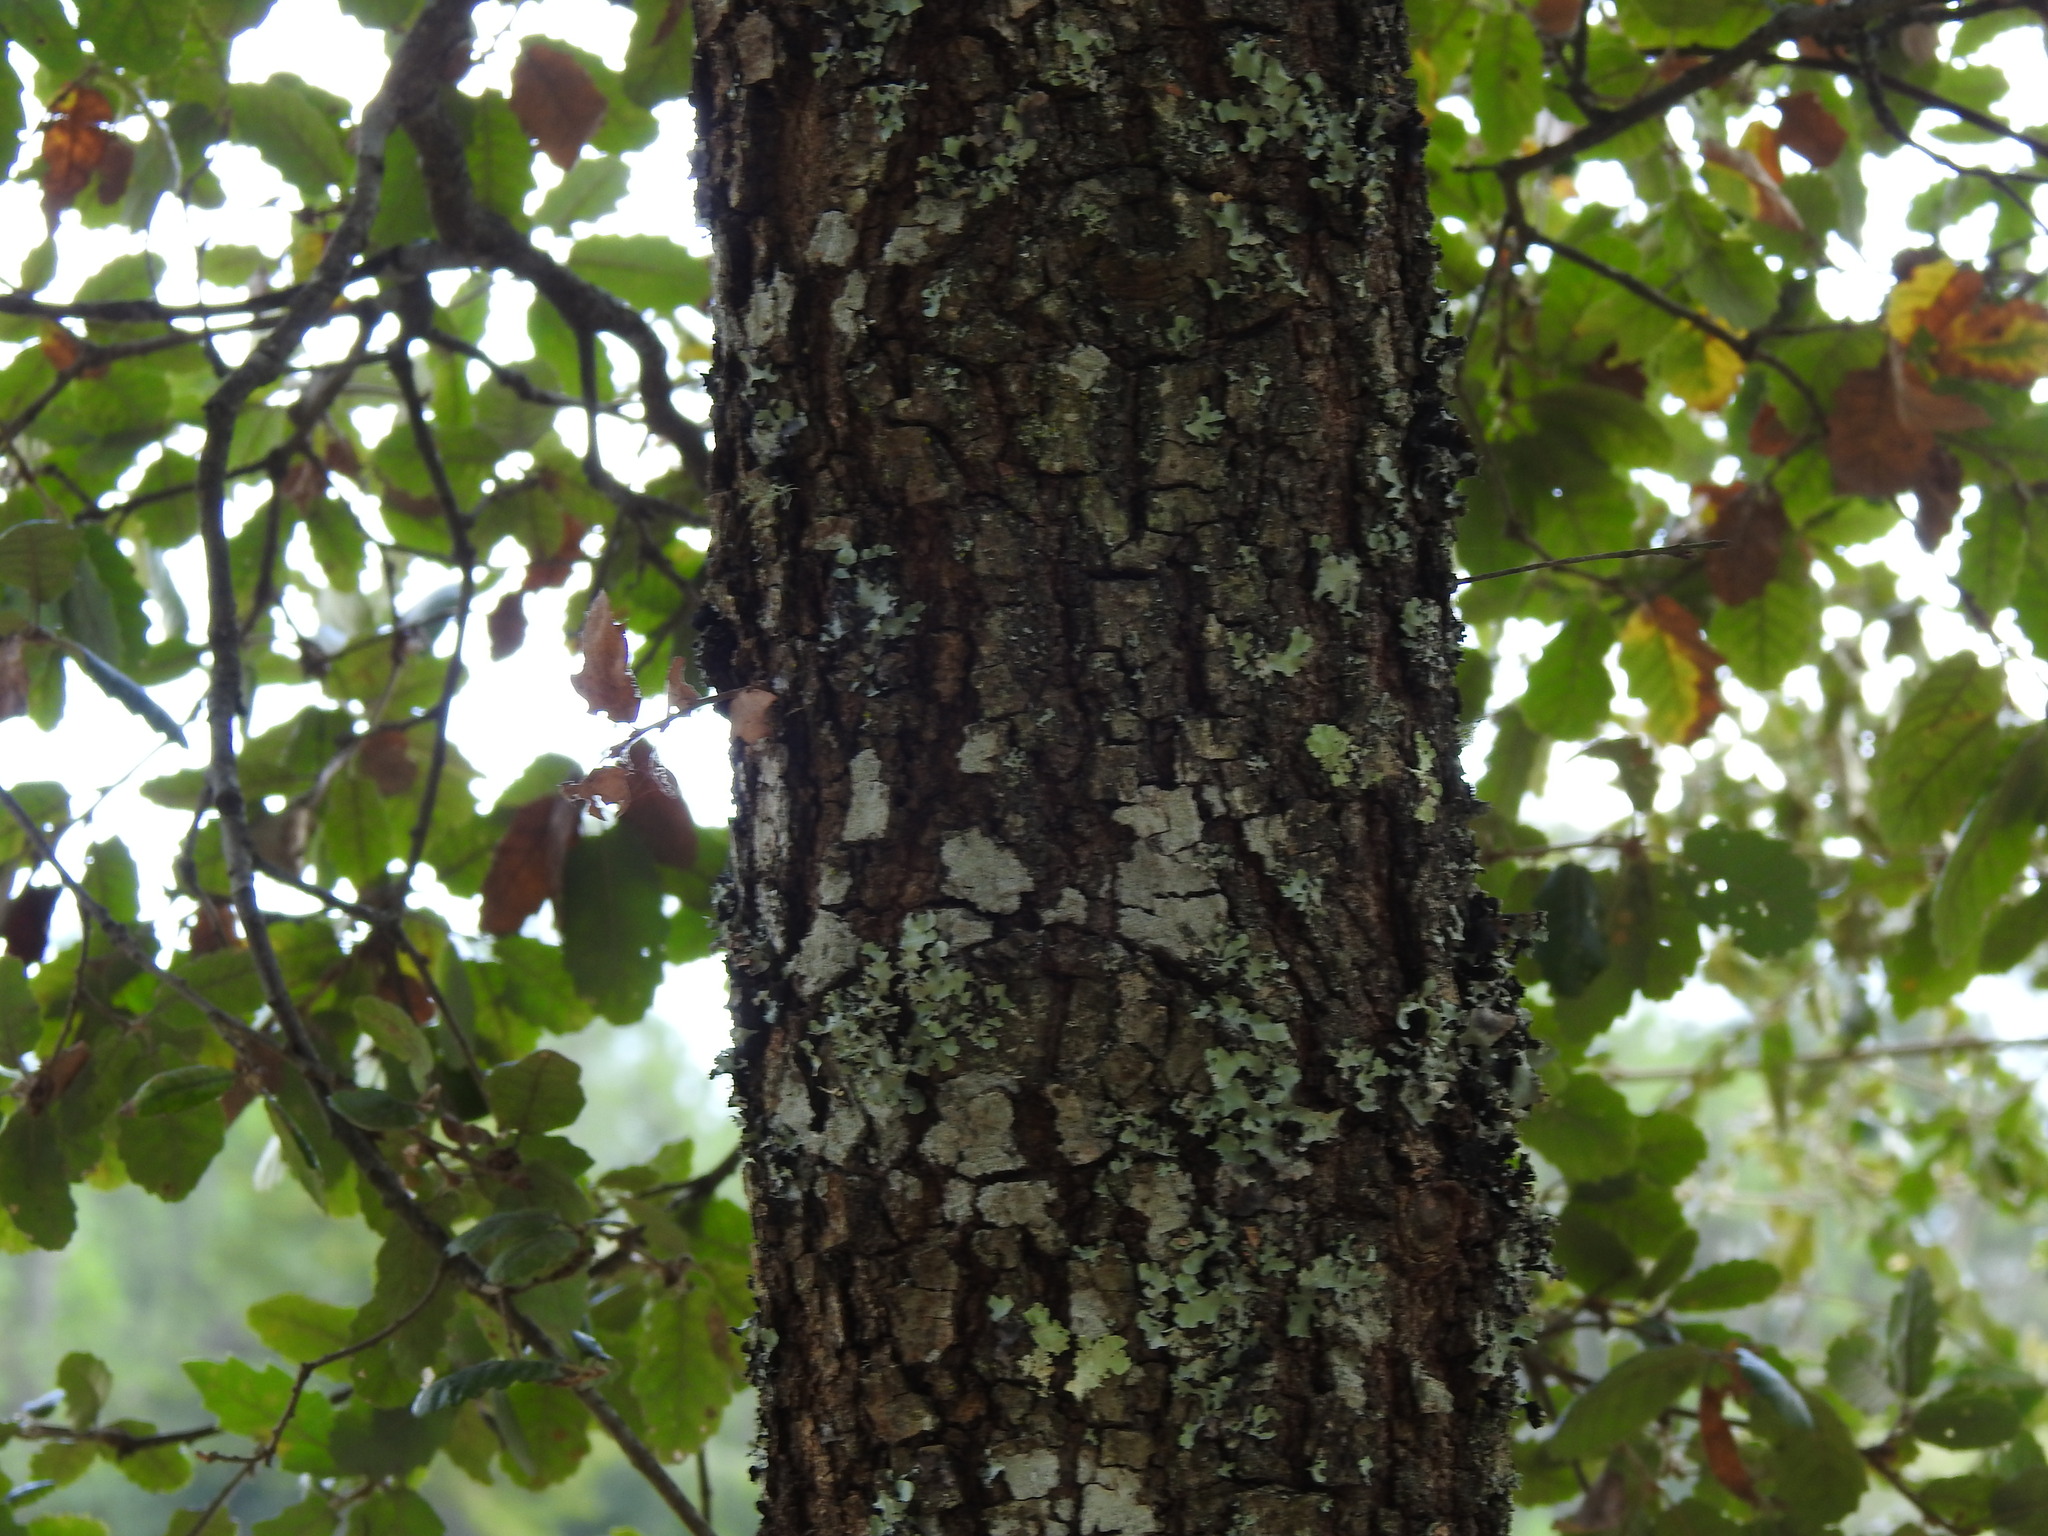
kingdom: Plantae
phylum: Tracheophyta
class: Magnoliopsida
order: Fagales
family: Fagaceae
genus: Quercus
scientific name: Quercus faginea
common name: Gall oak tree
